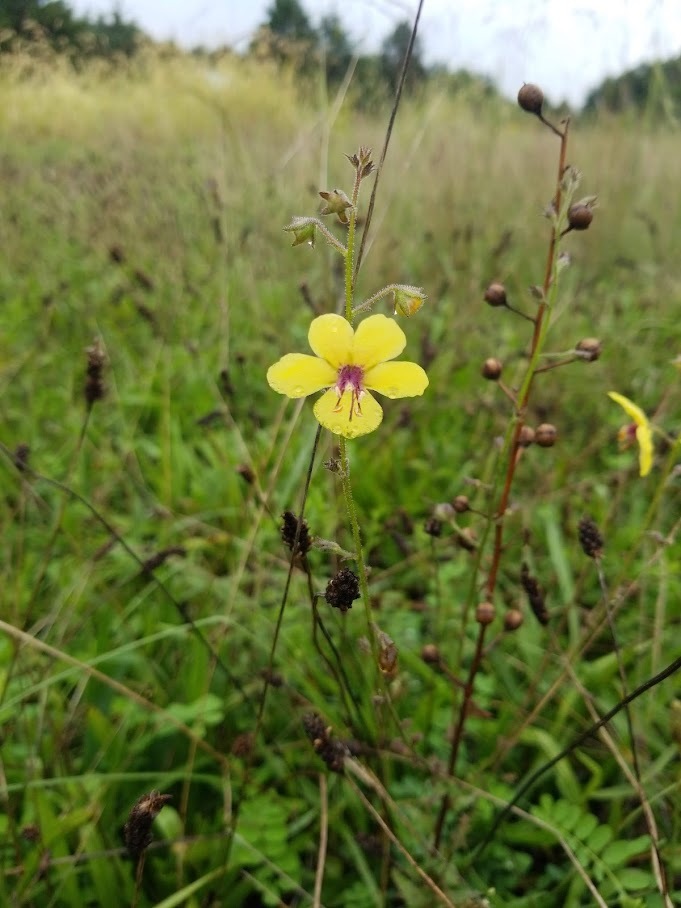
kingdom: Plantae
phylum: Tracheophyta
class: Magnoliopsida
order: Lamiales
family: Scrophulariaceae
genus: Verbascum
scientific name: Verbascum blattaria
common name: Moth mullein
